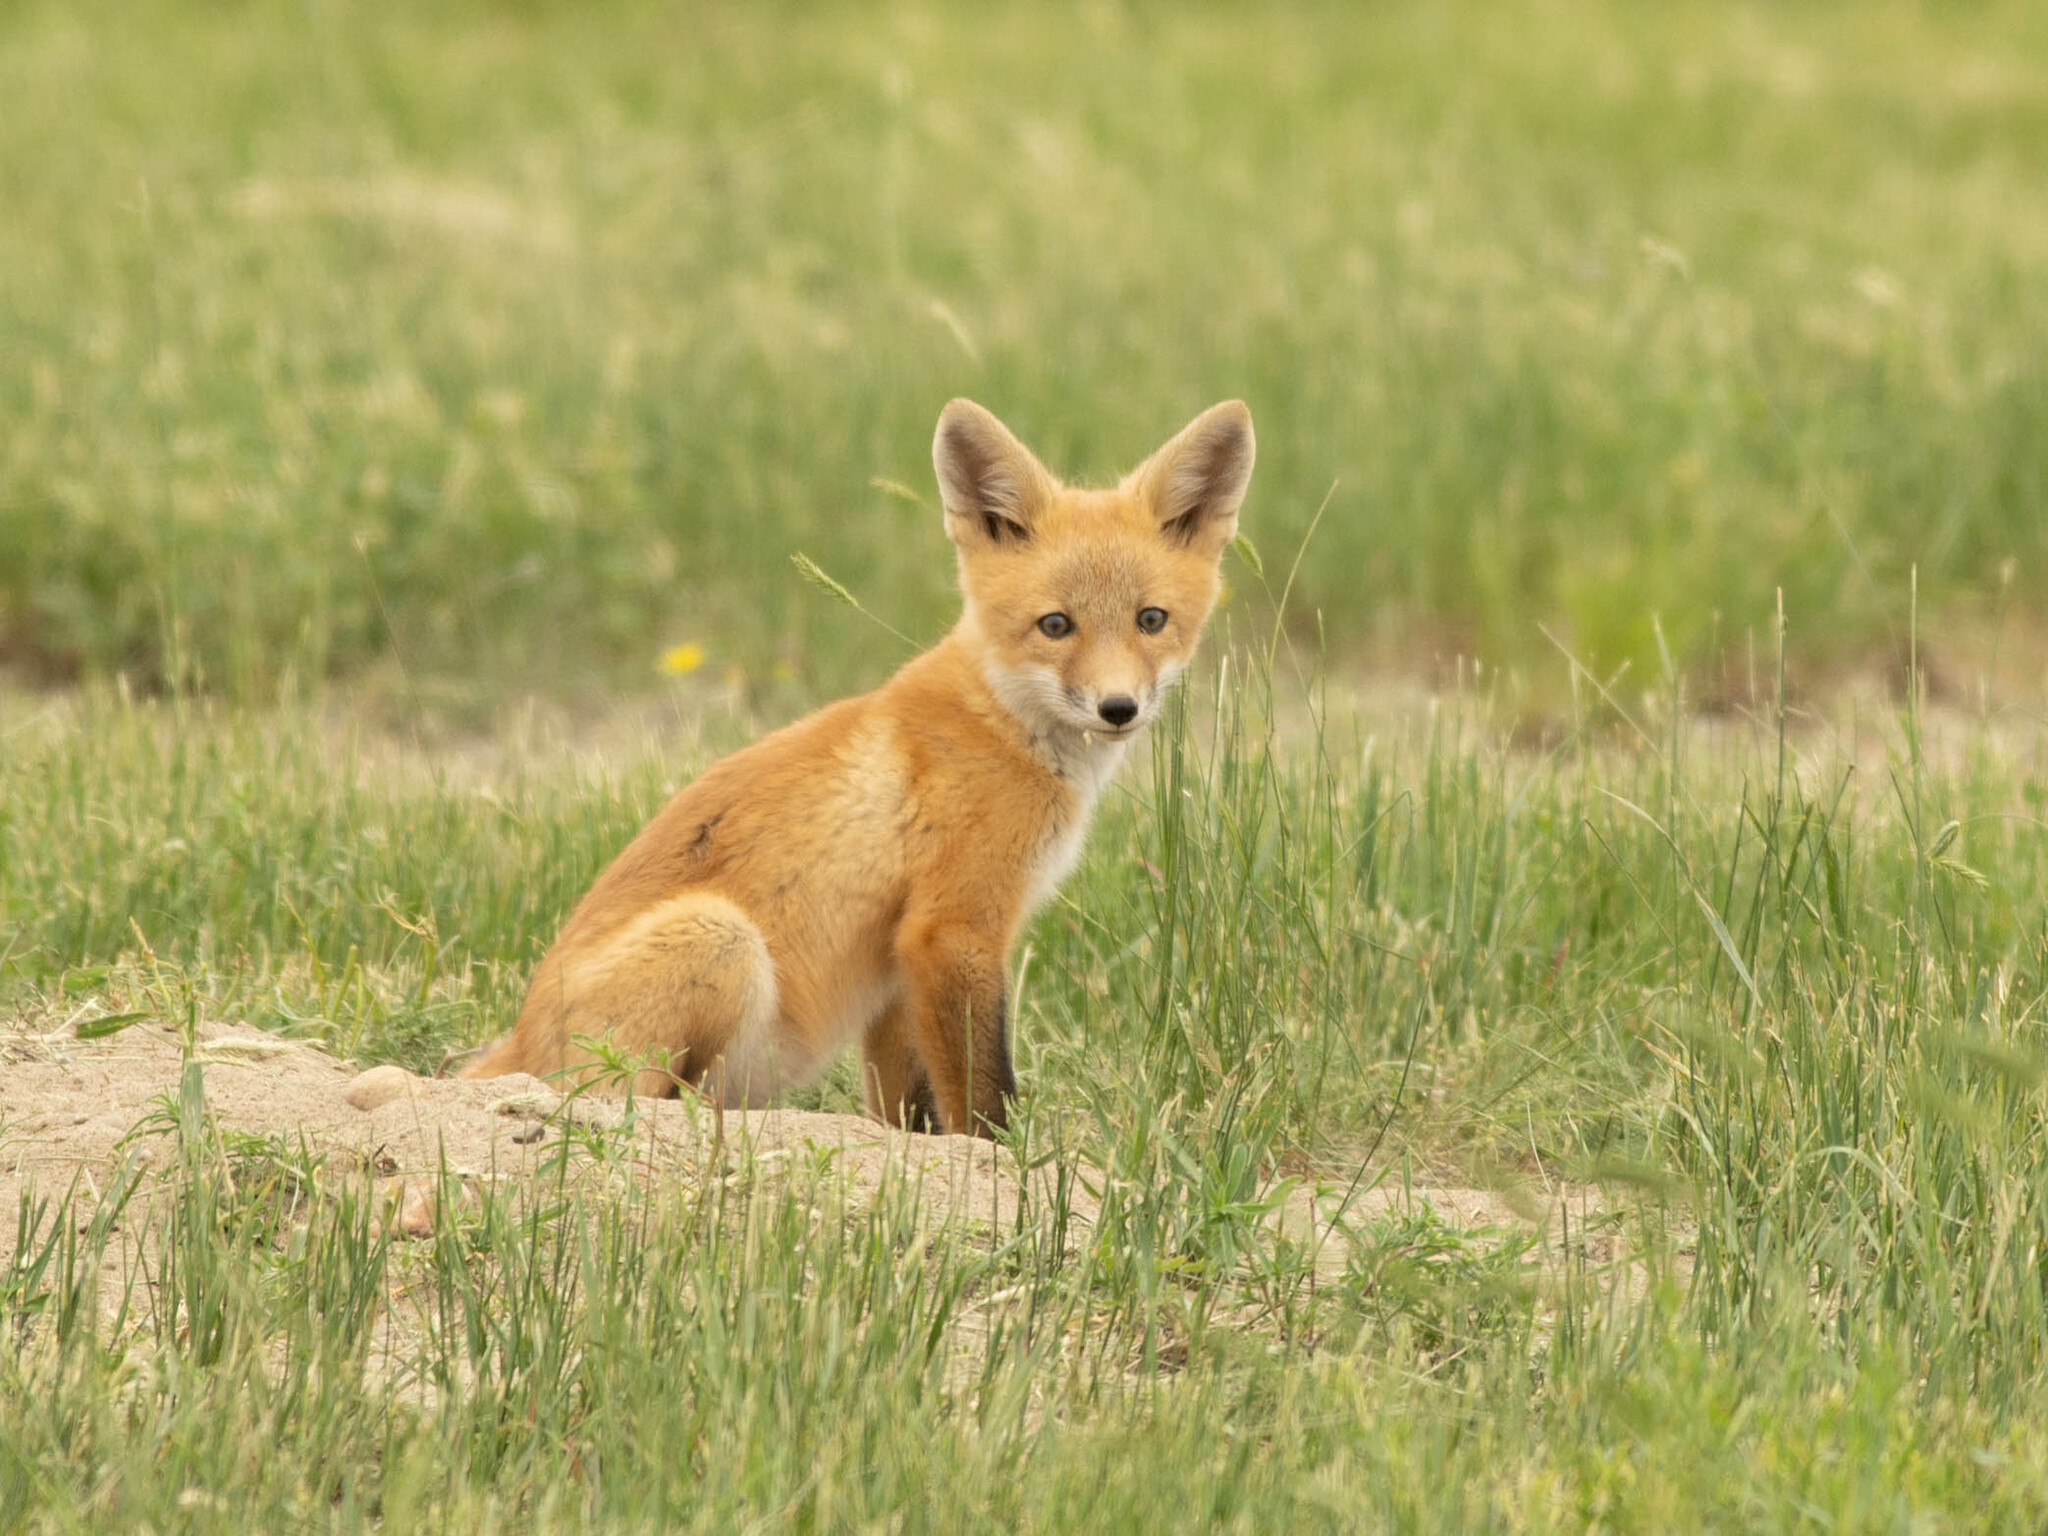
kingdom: Animalia
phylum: Chordata
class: Mammalia
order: Carnivora
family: Canidae
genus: Vulpes
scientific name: Vulpes vulpes
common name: Red fox
